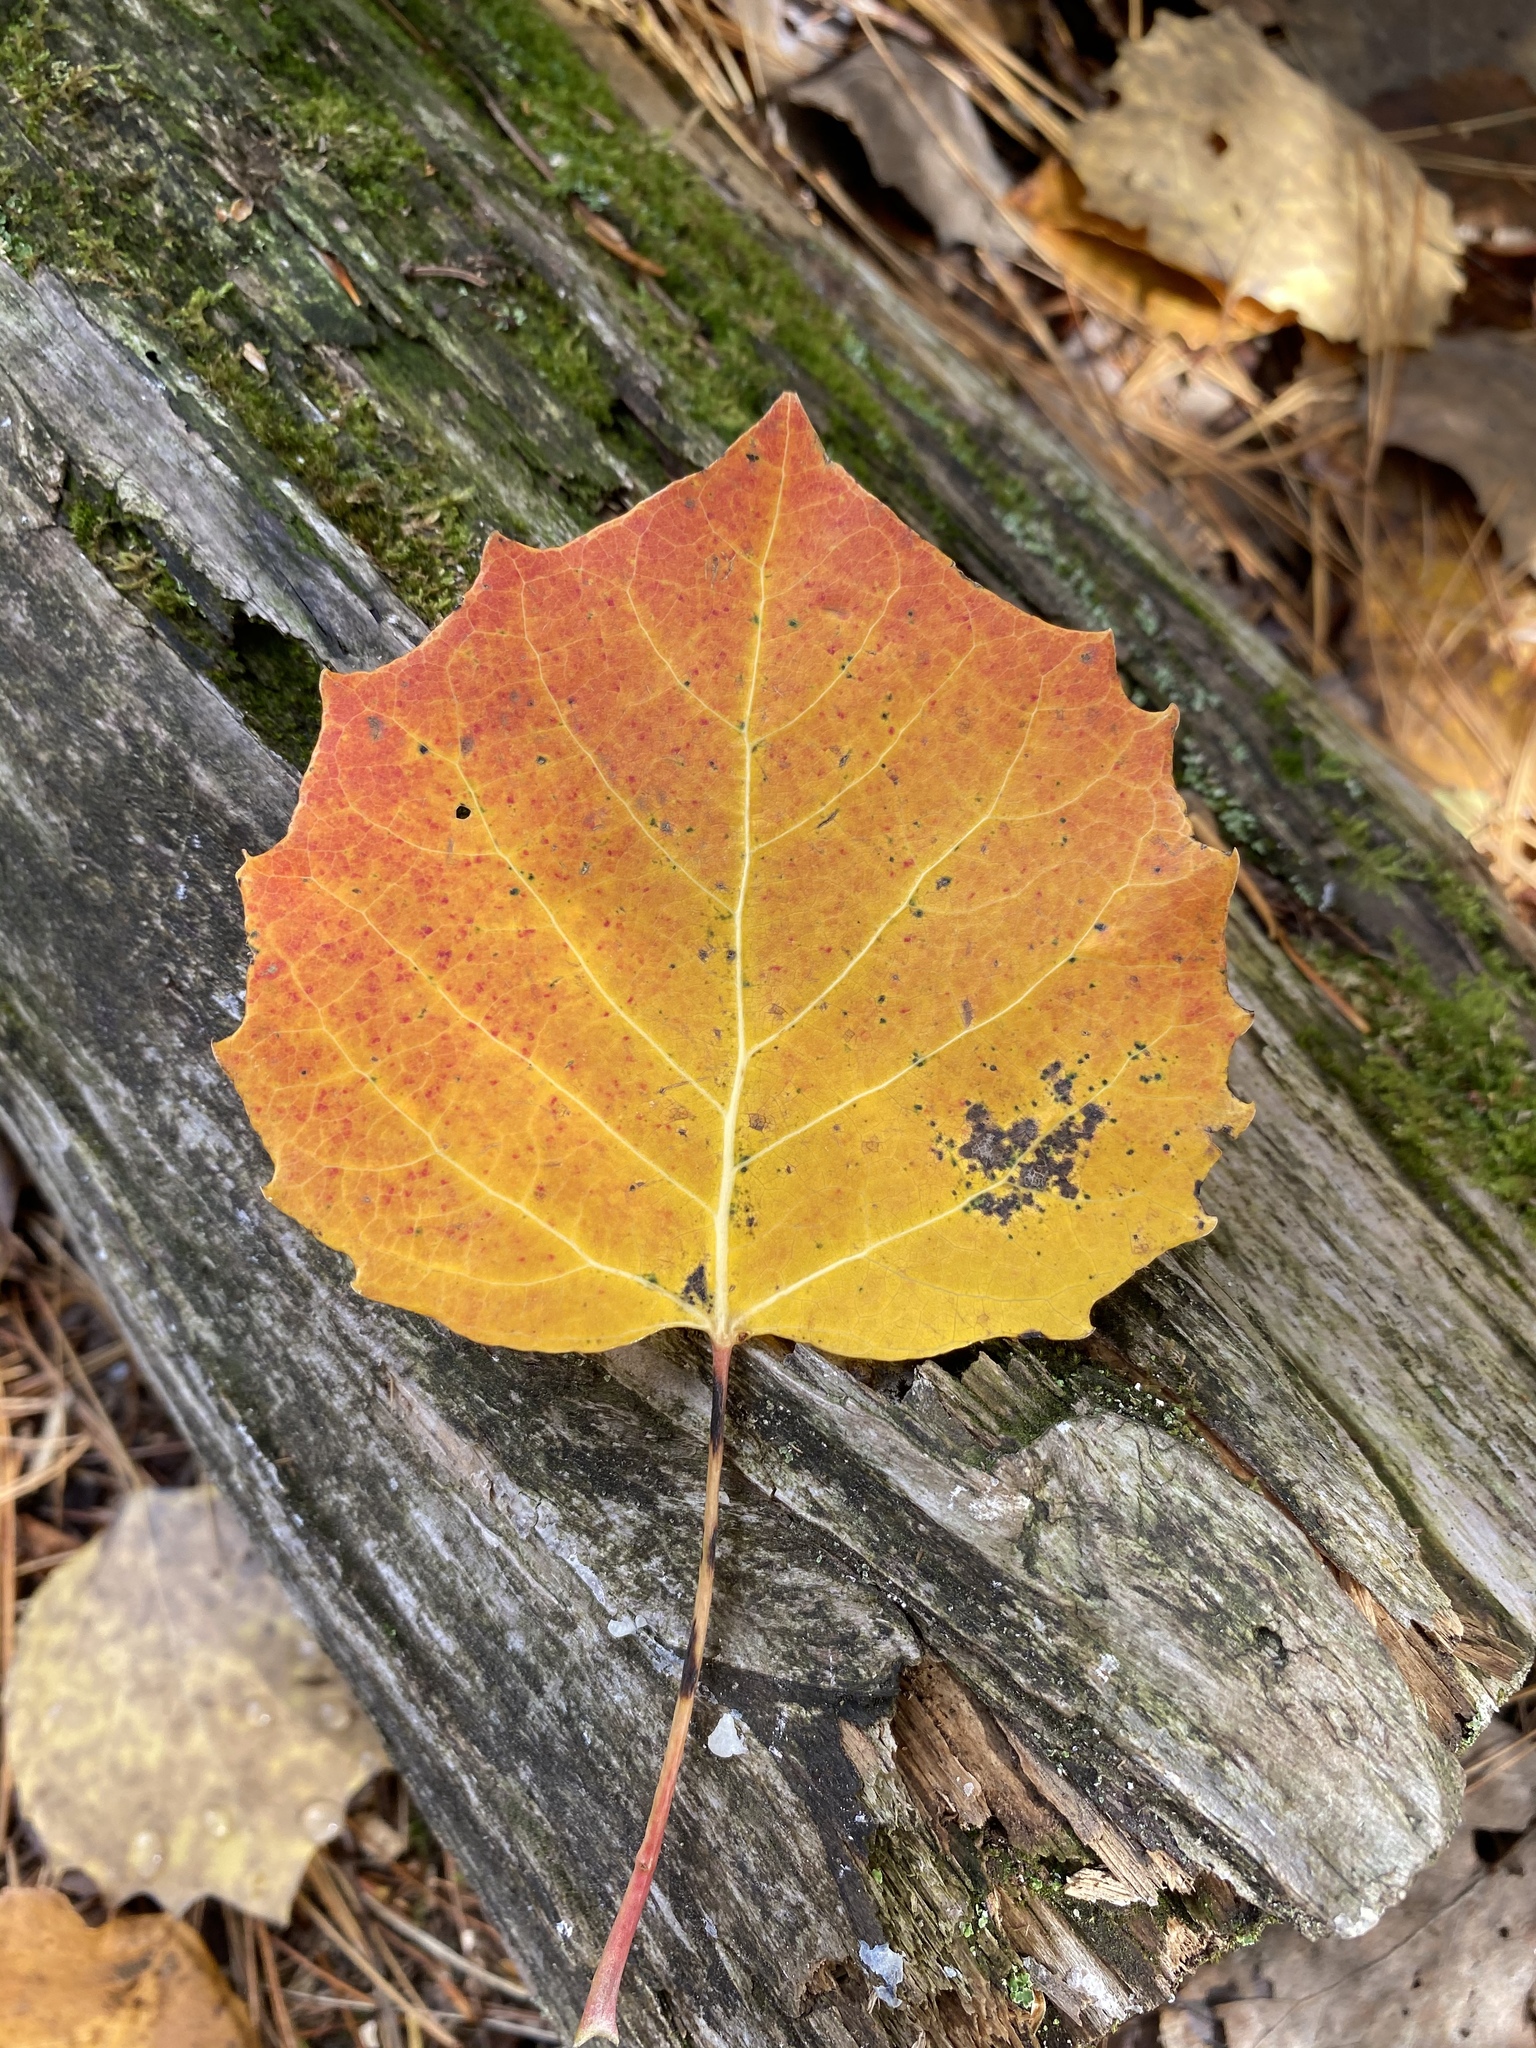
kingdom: Plantae
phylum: Tracheophyta
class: Magnoliopsida
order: Malpighiales
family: Salicaceae
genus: Populus
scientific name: Populus grandidentata
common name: Bigtooth aspen
